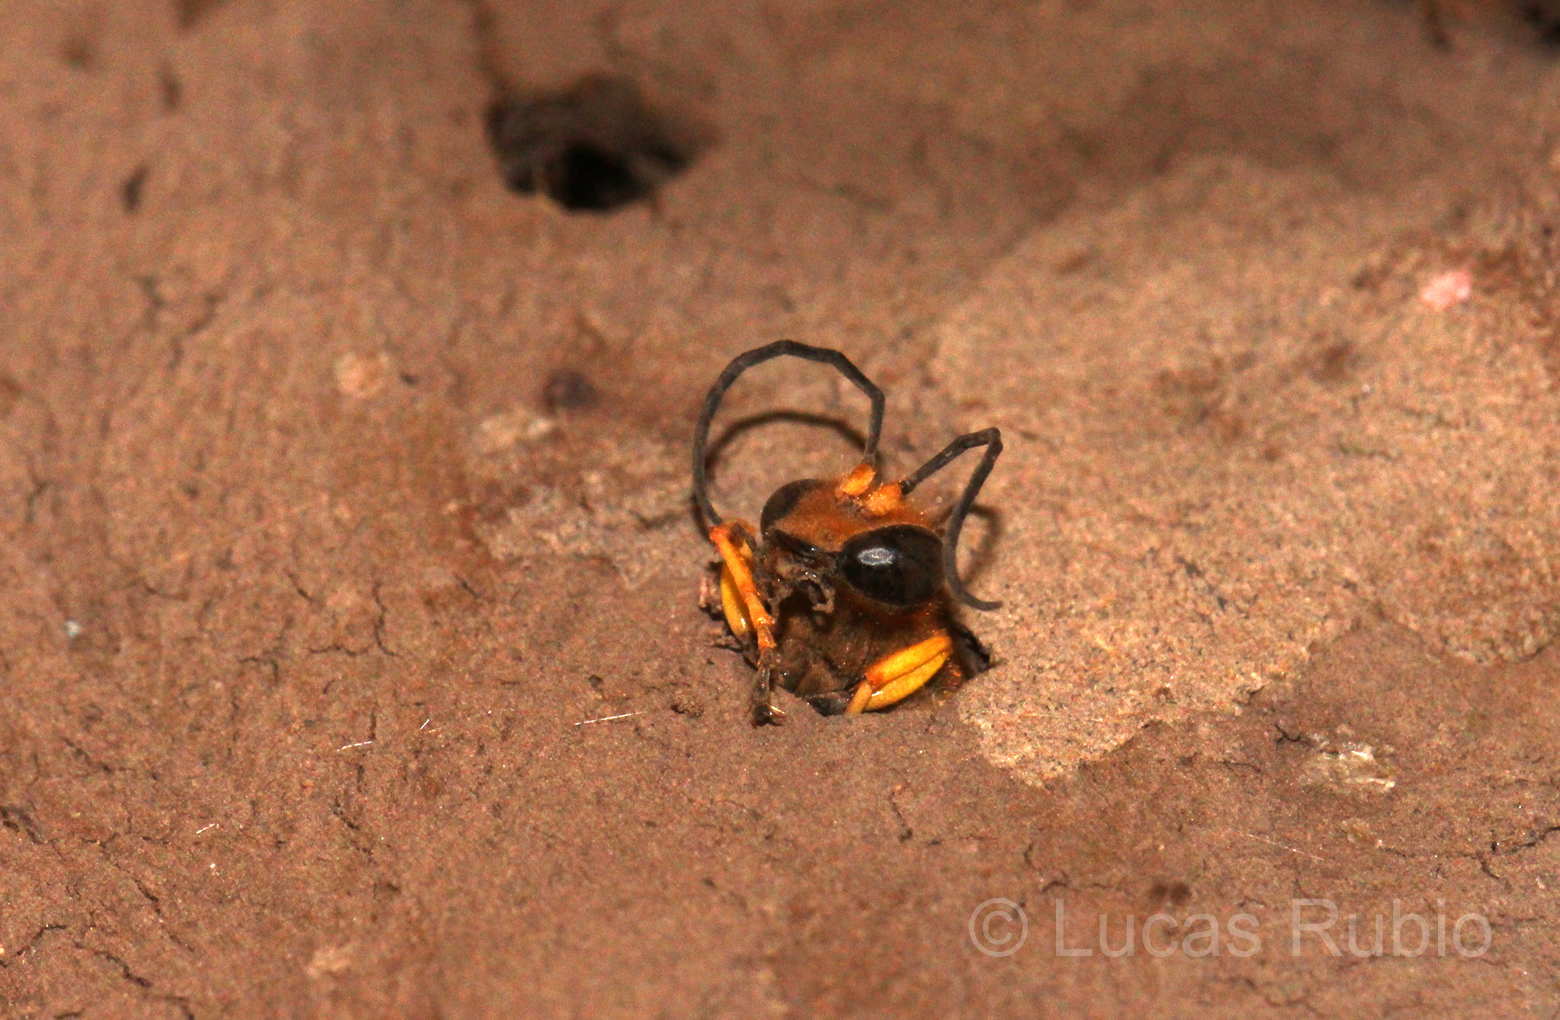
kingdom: Animalia
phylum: Arthropoda
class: Insecta
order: Hymenoptera
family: Sphecidae
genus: Sceliphron
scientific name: Sceliphron asiaticum
